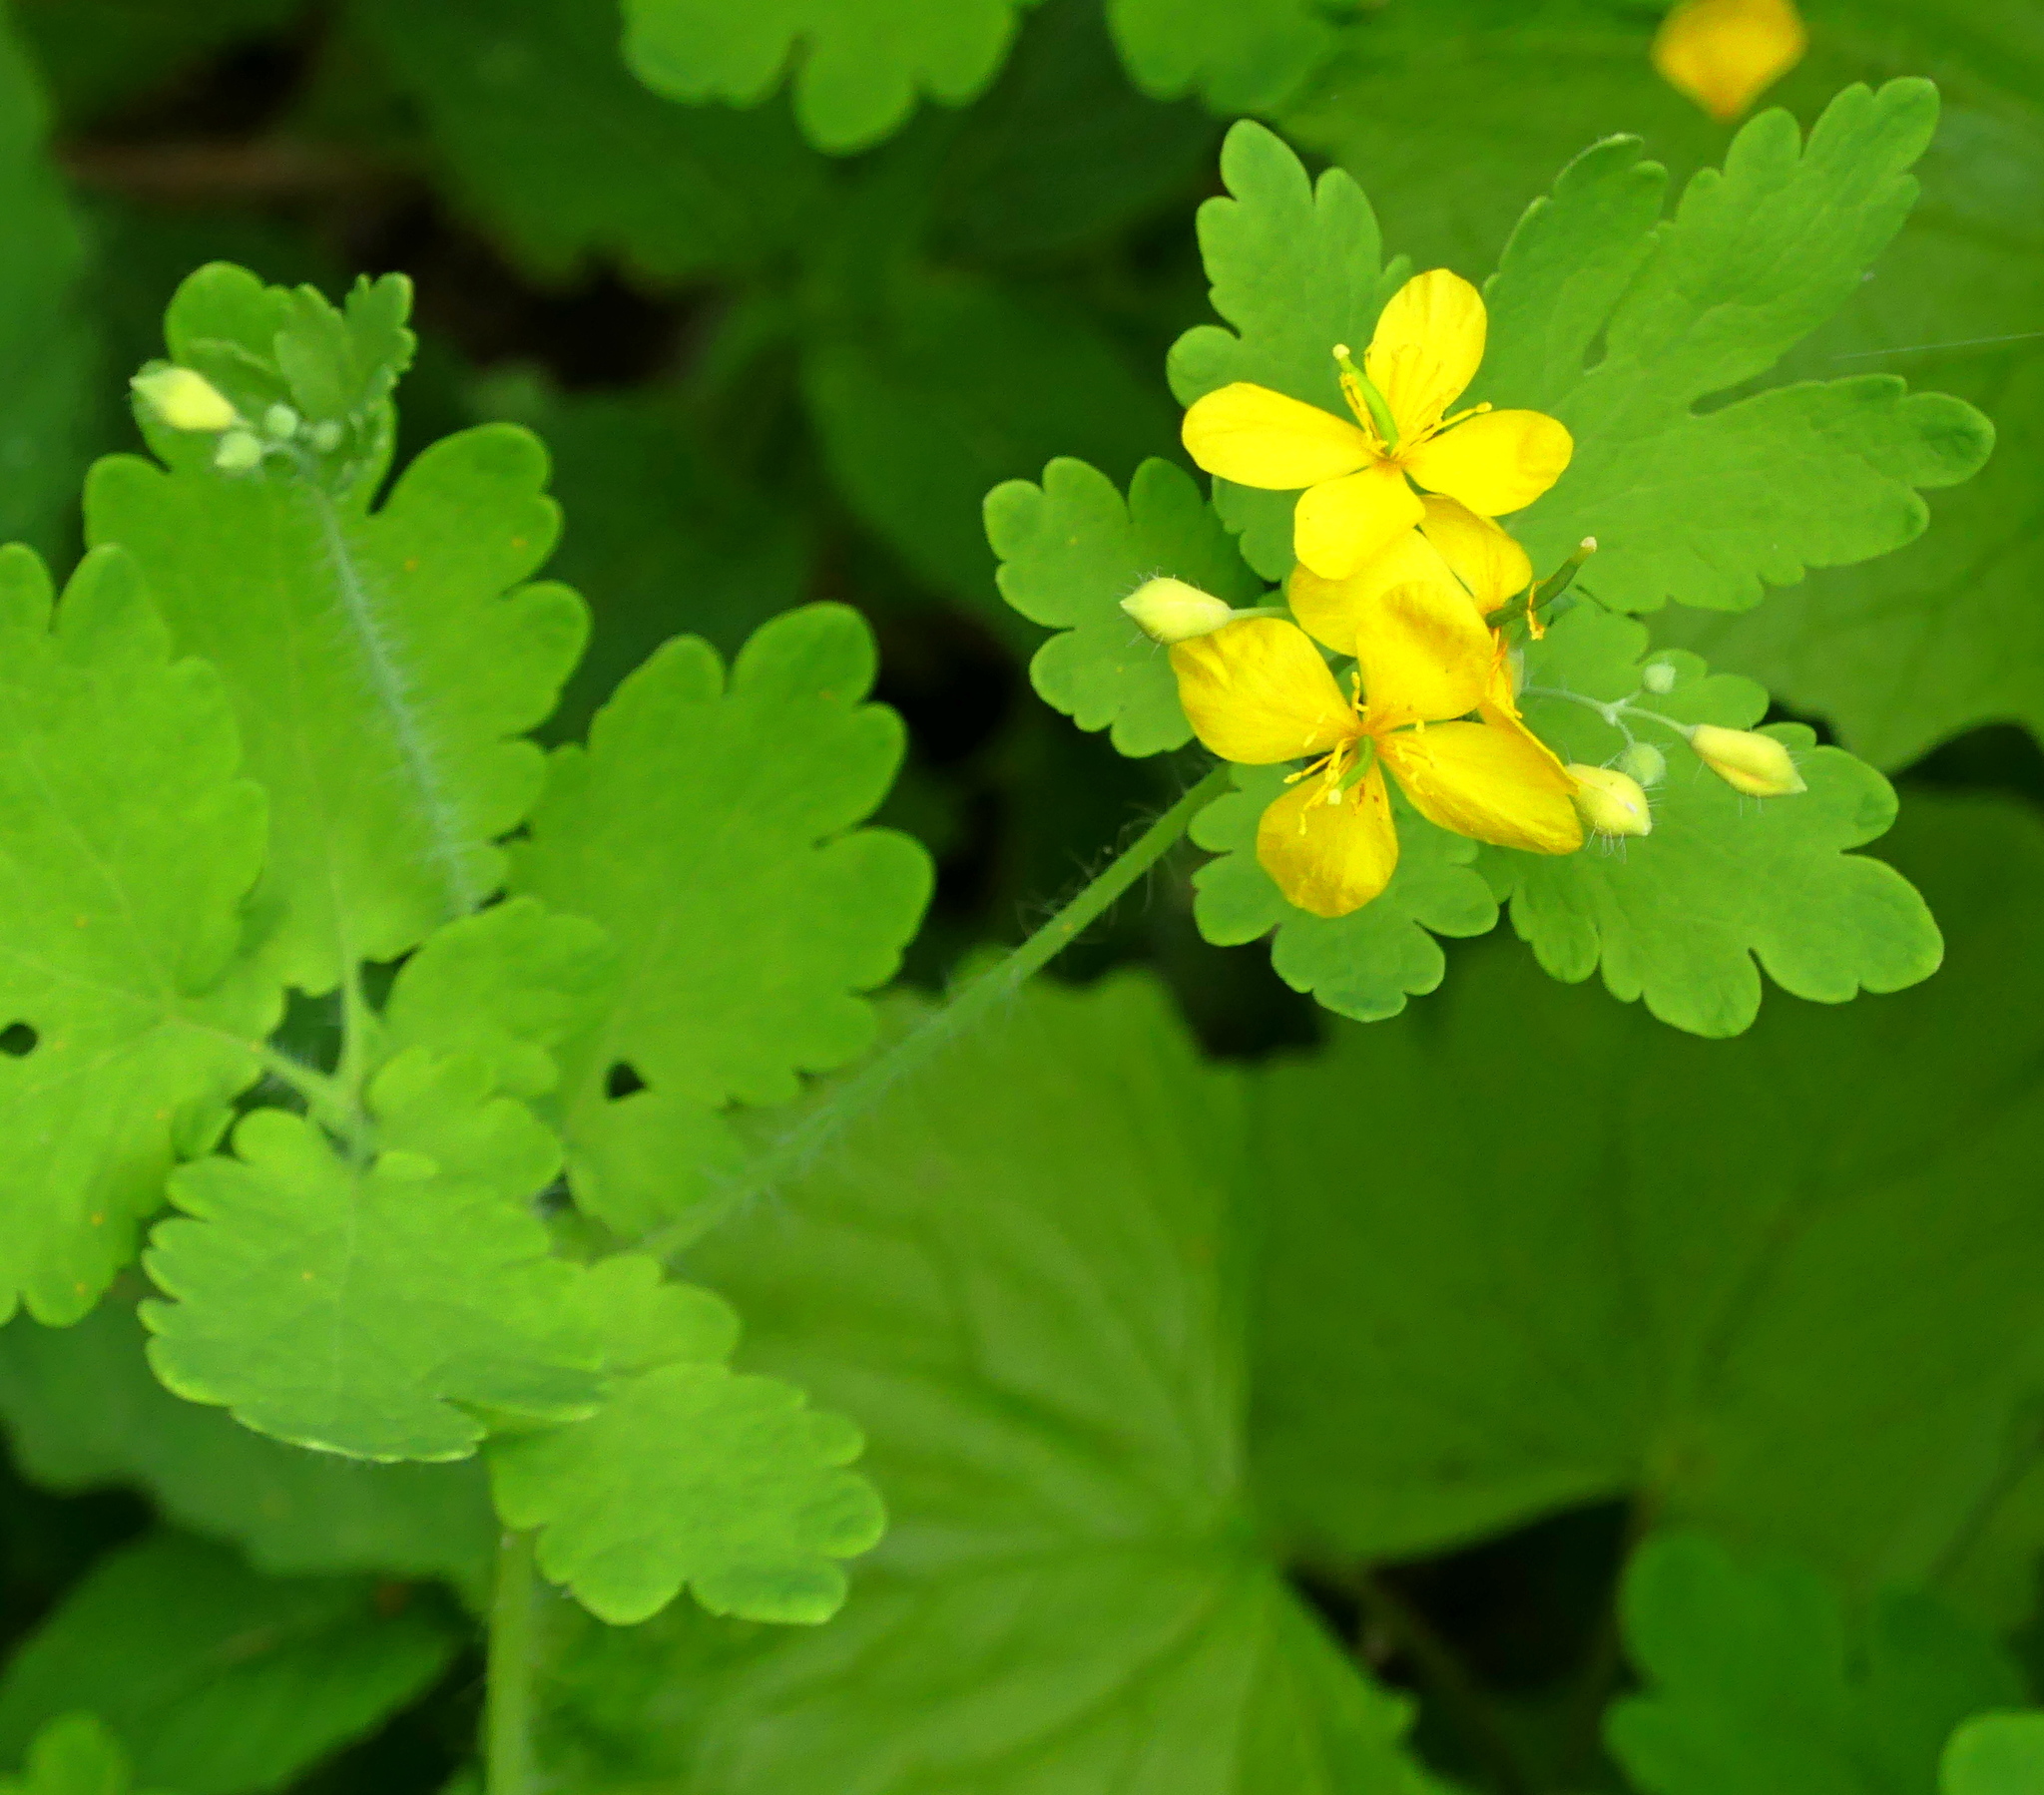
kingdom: Plantae
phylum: Tracheophyta
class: Magnoliopsida
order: Ranunculales
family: Papaveraceae
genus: Chelidonium
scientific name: Chelidonium majus
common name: Greater celandine
